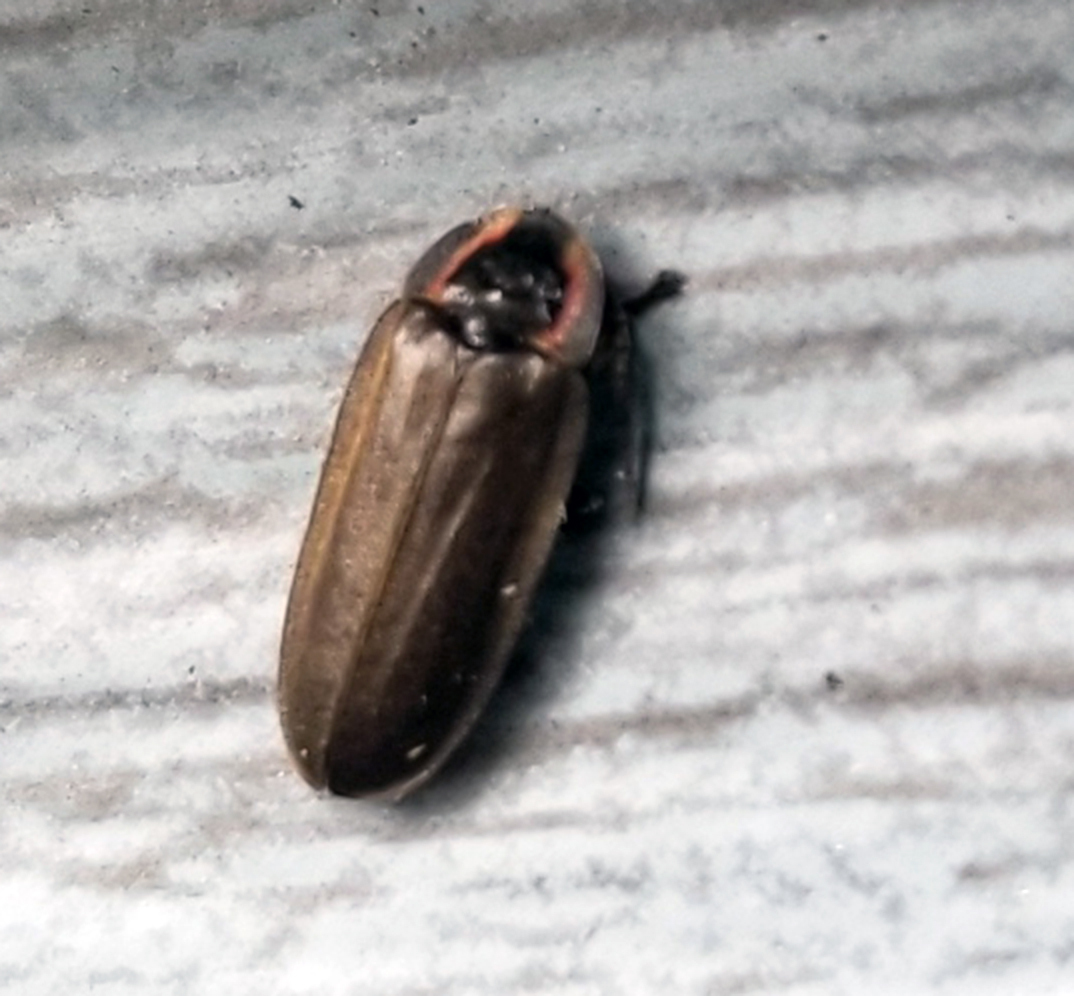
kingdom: Animalia
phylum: Arthropoda
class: Insecta
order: Coleoptera
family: Lampyridae
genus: Photinus
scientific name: Photinus corrusca
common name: Winter firefly
